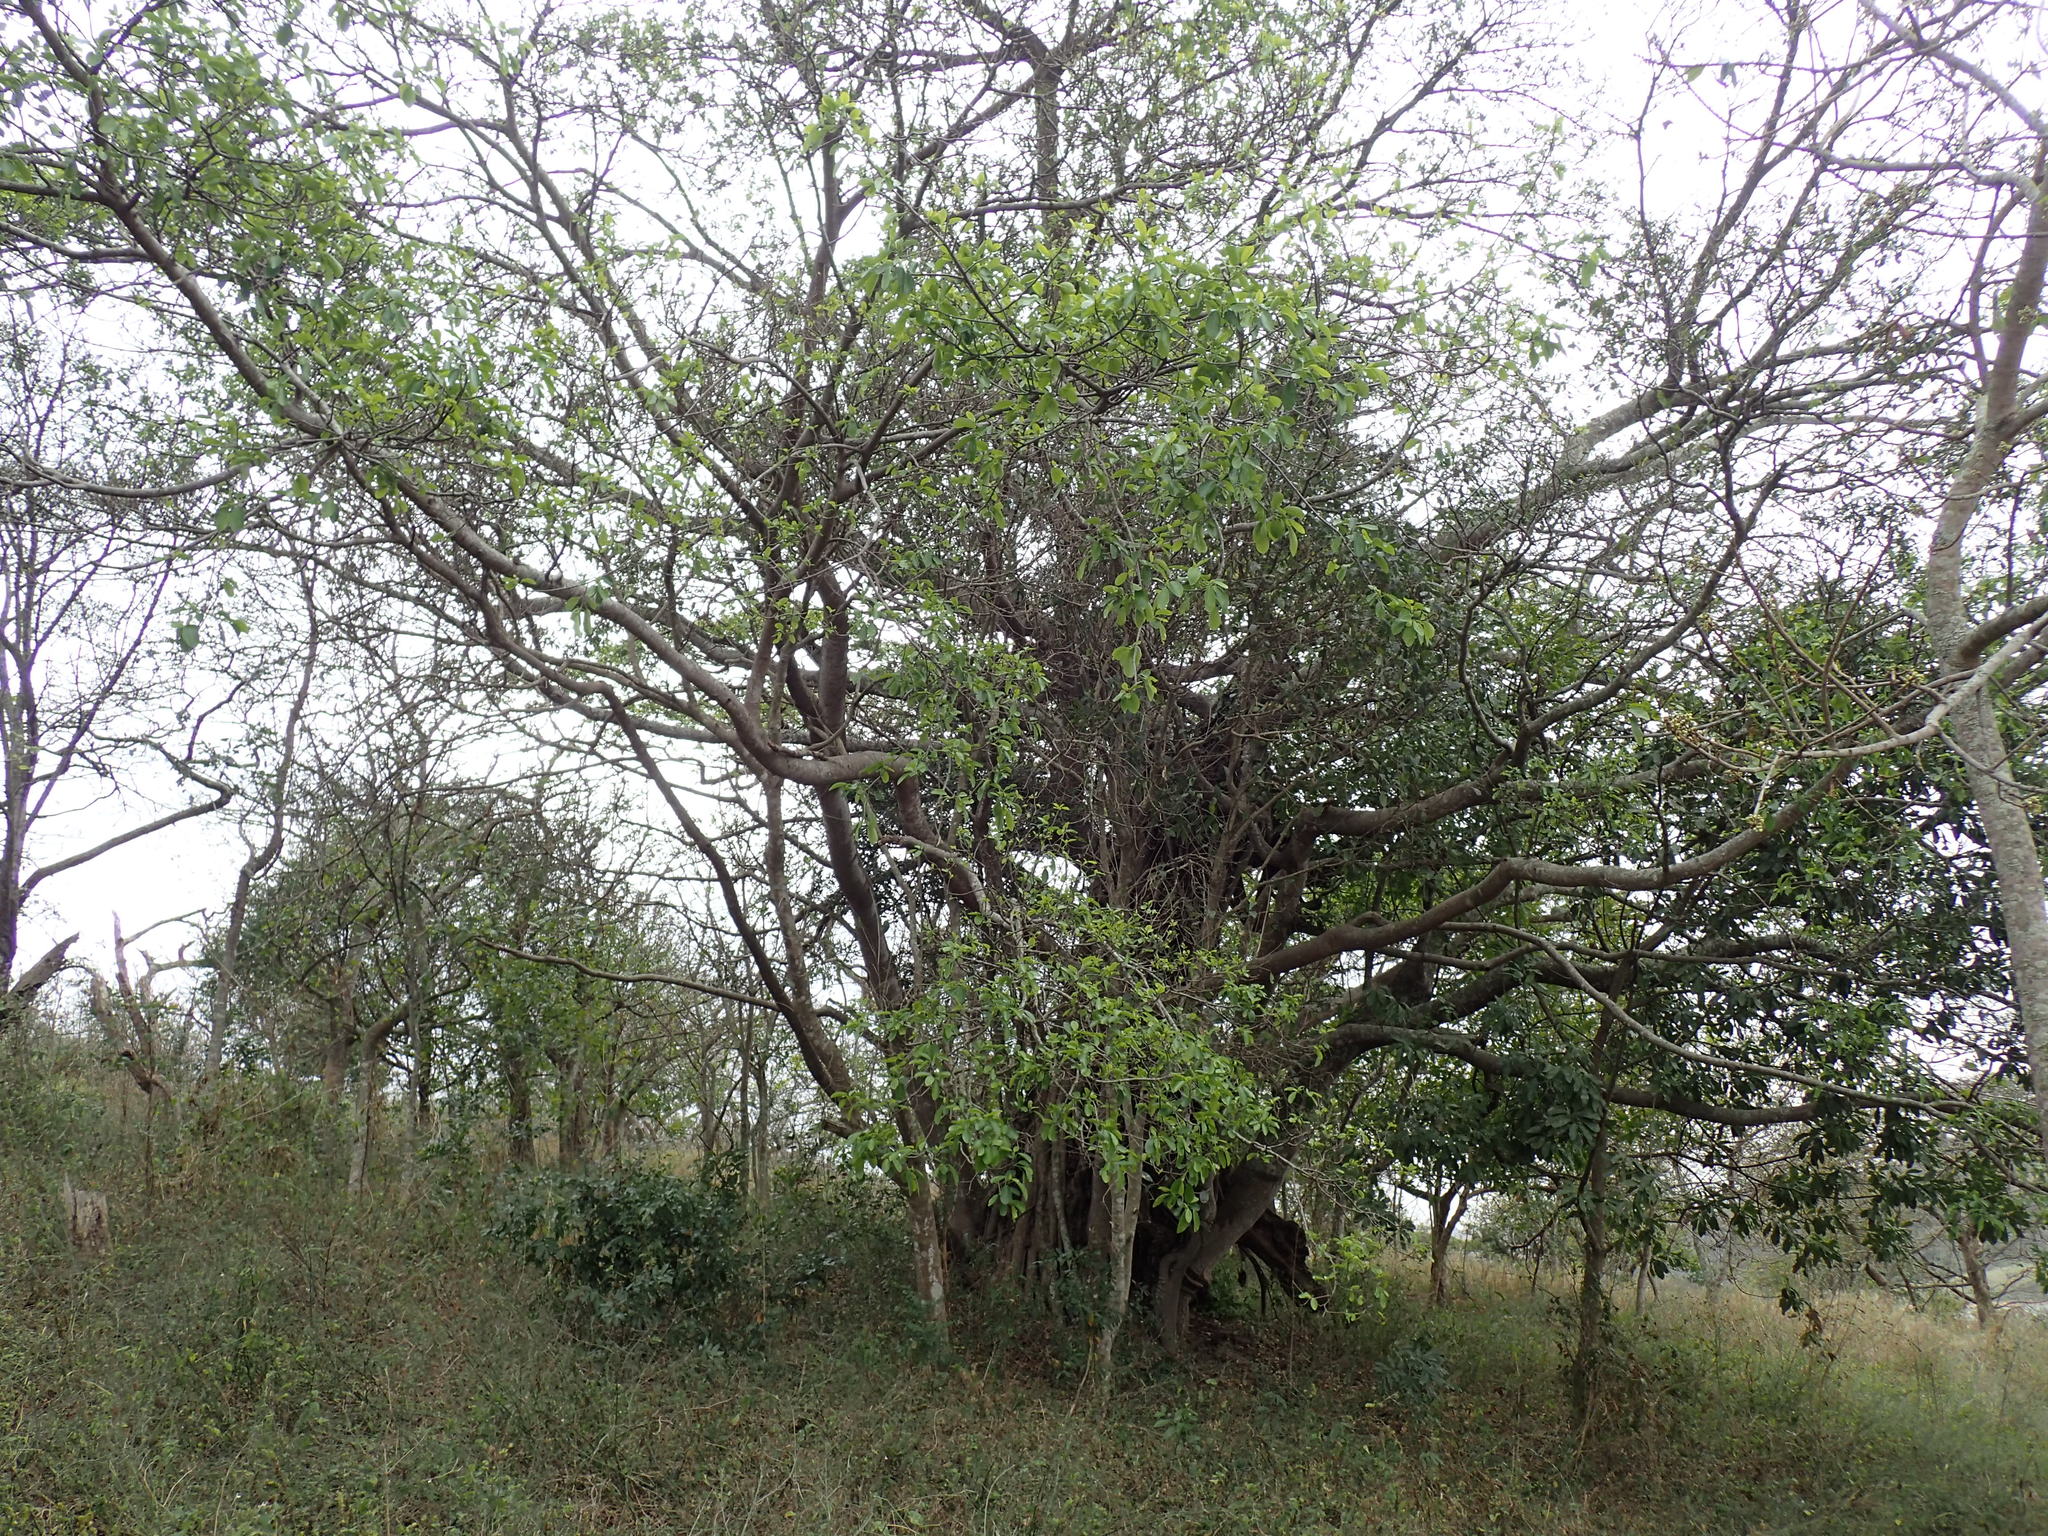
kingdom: Plantae
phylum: Tracheophyta
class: Magnoliopsida
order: Rosales
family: Moraceae
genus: Ficus
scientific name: Ficus thonningii
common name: Fig
